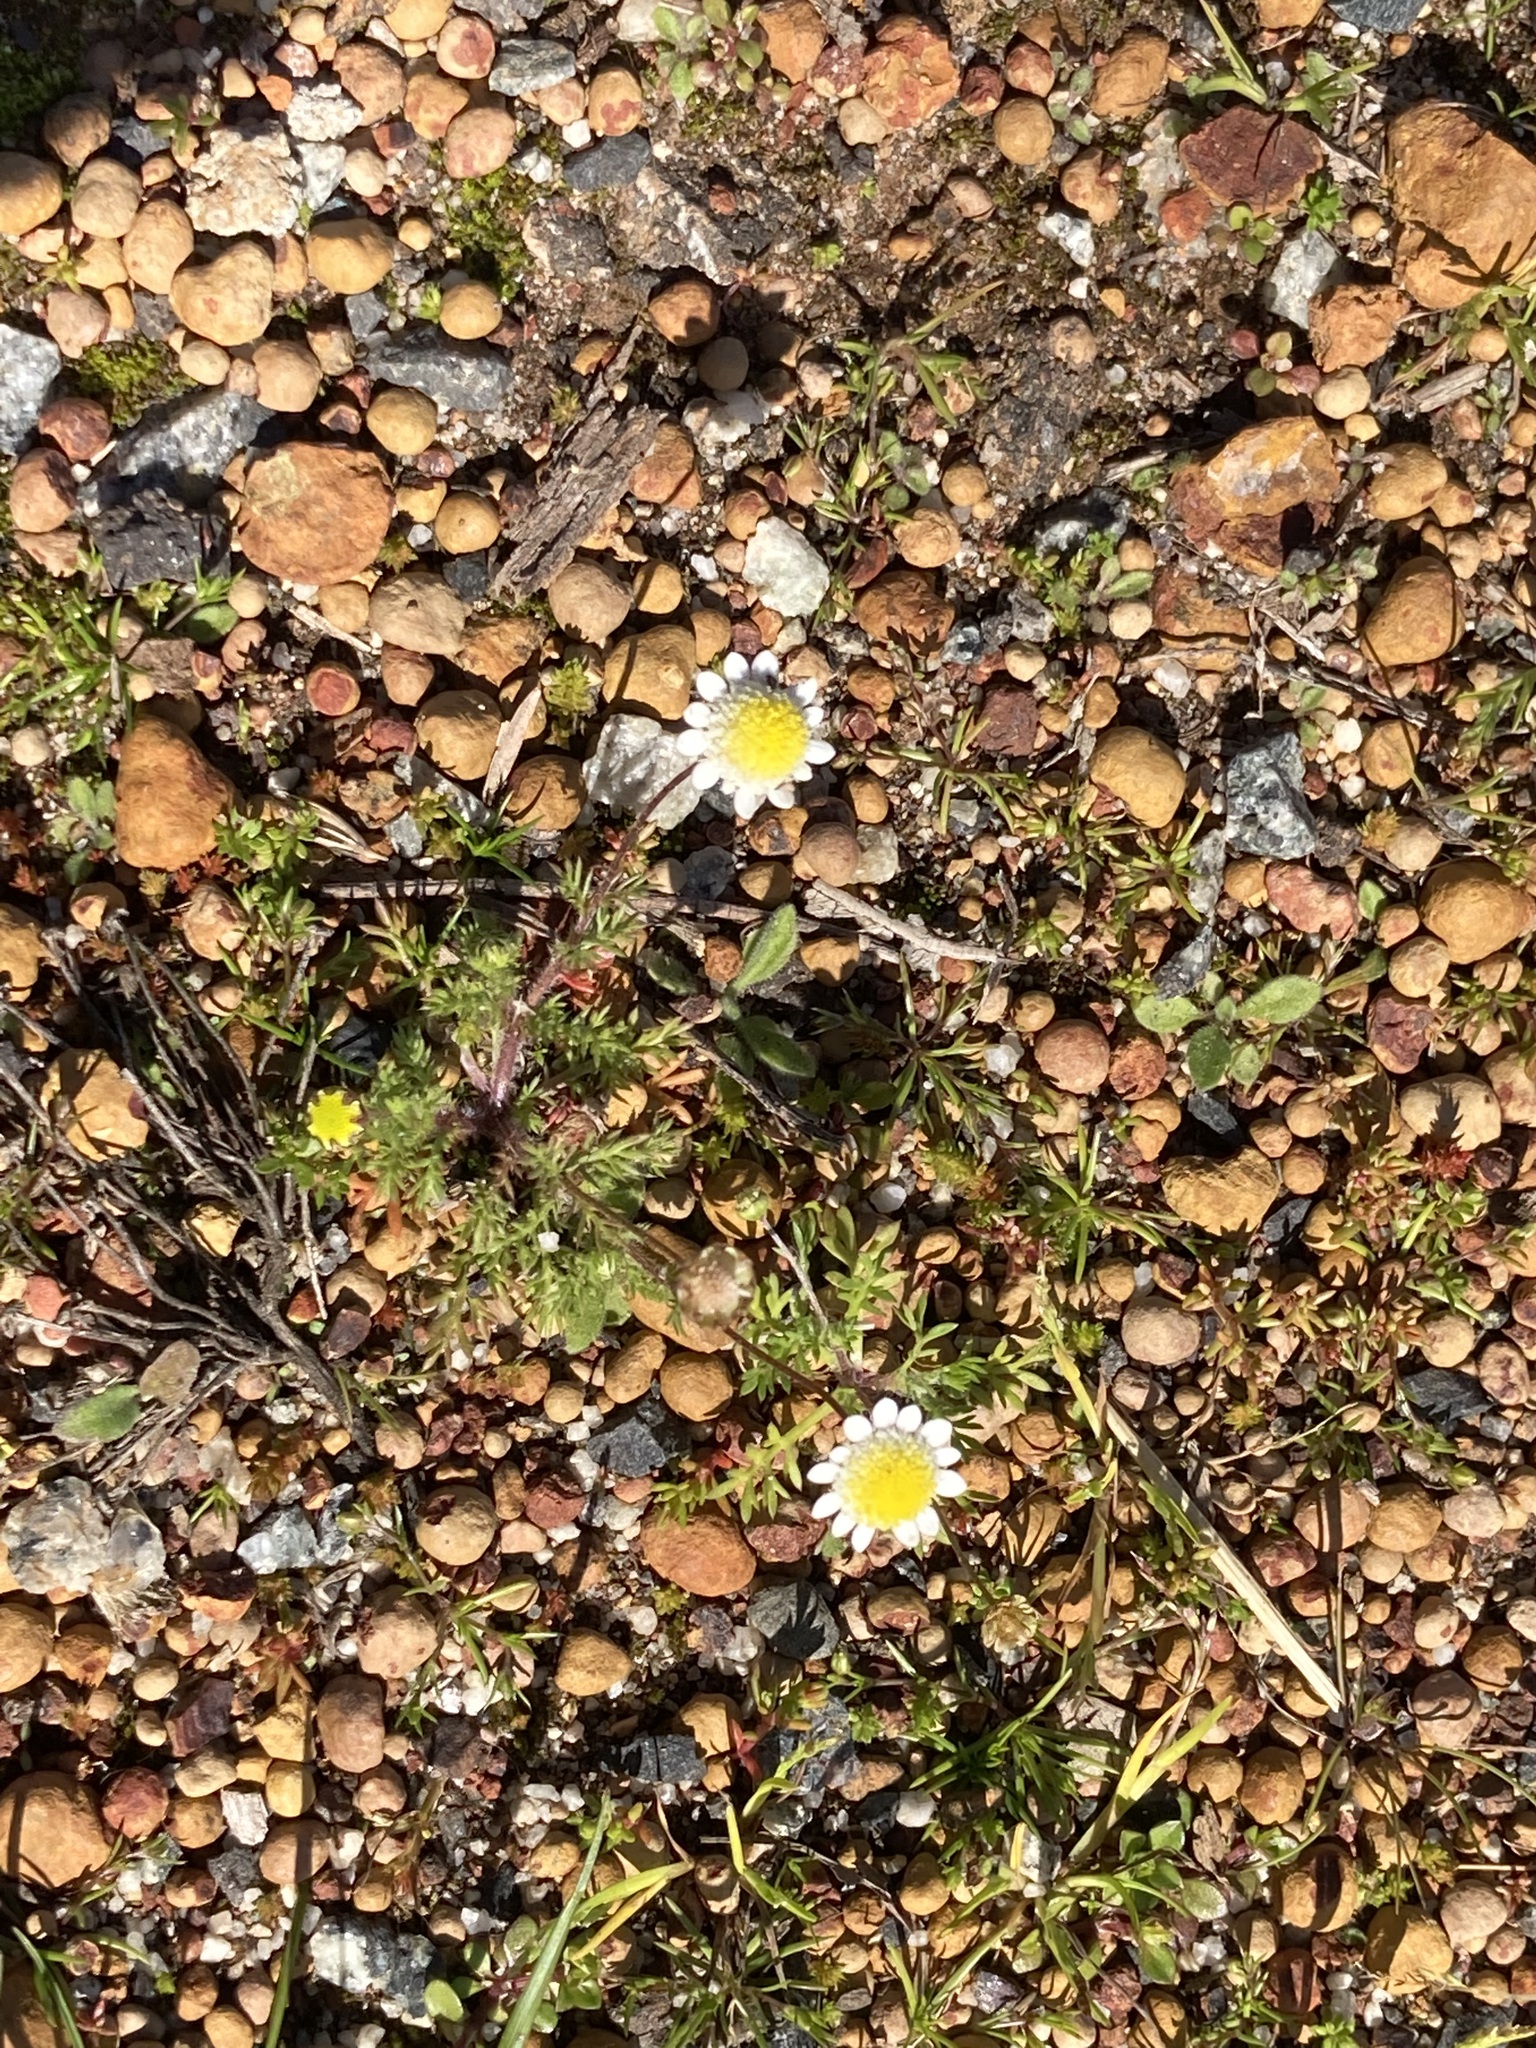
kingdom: Plantae
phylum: Tracheophyta
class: Magnoliopsida
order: Asterales
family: Asteraceae
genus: Cotula
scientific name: Cotula turbinata
